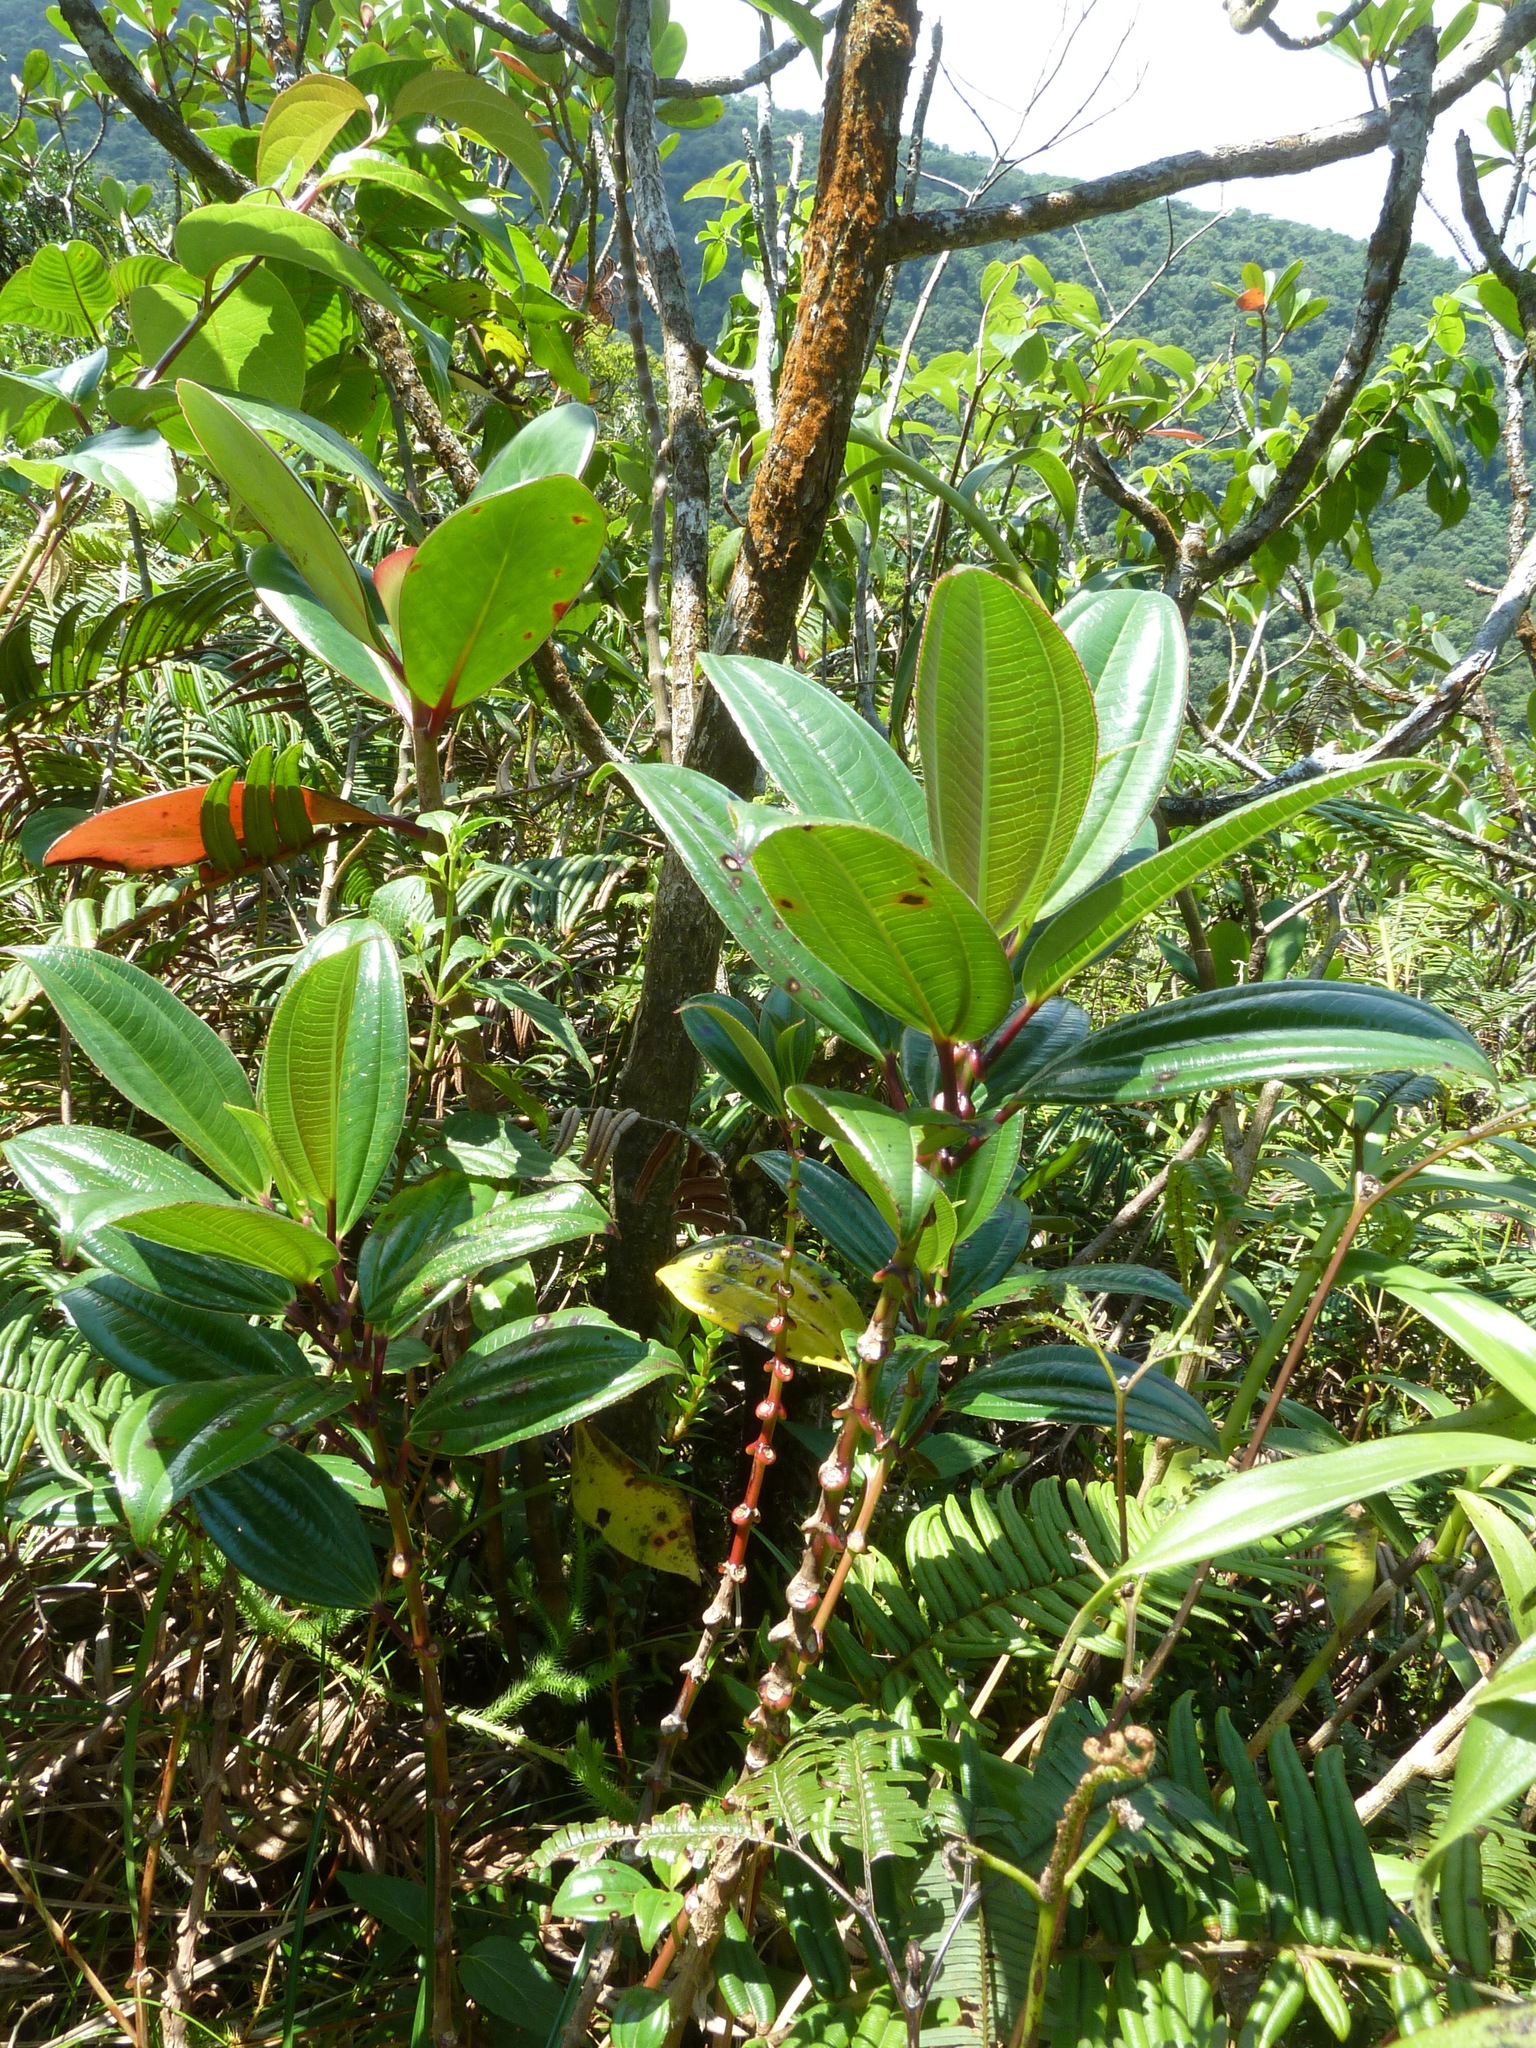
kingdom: Plantae
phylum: Tracheophyta
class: Magnoliopsida
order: Myrtales
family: Melastomataceae
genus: Miconia
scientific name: Miconia amplinodis
